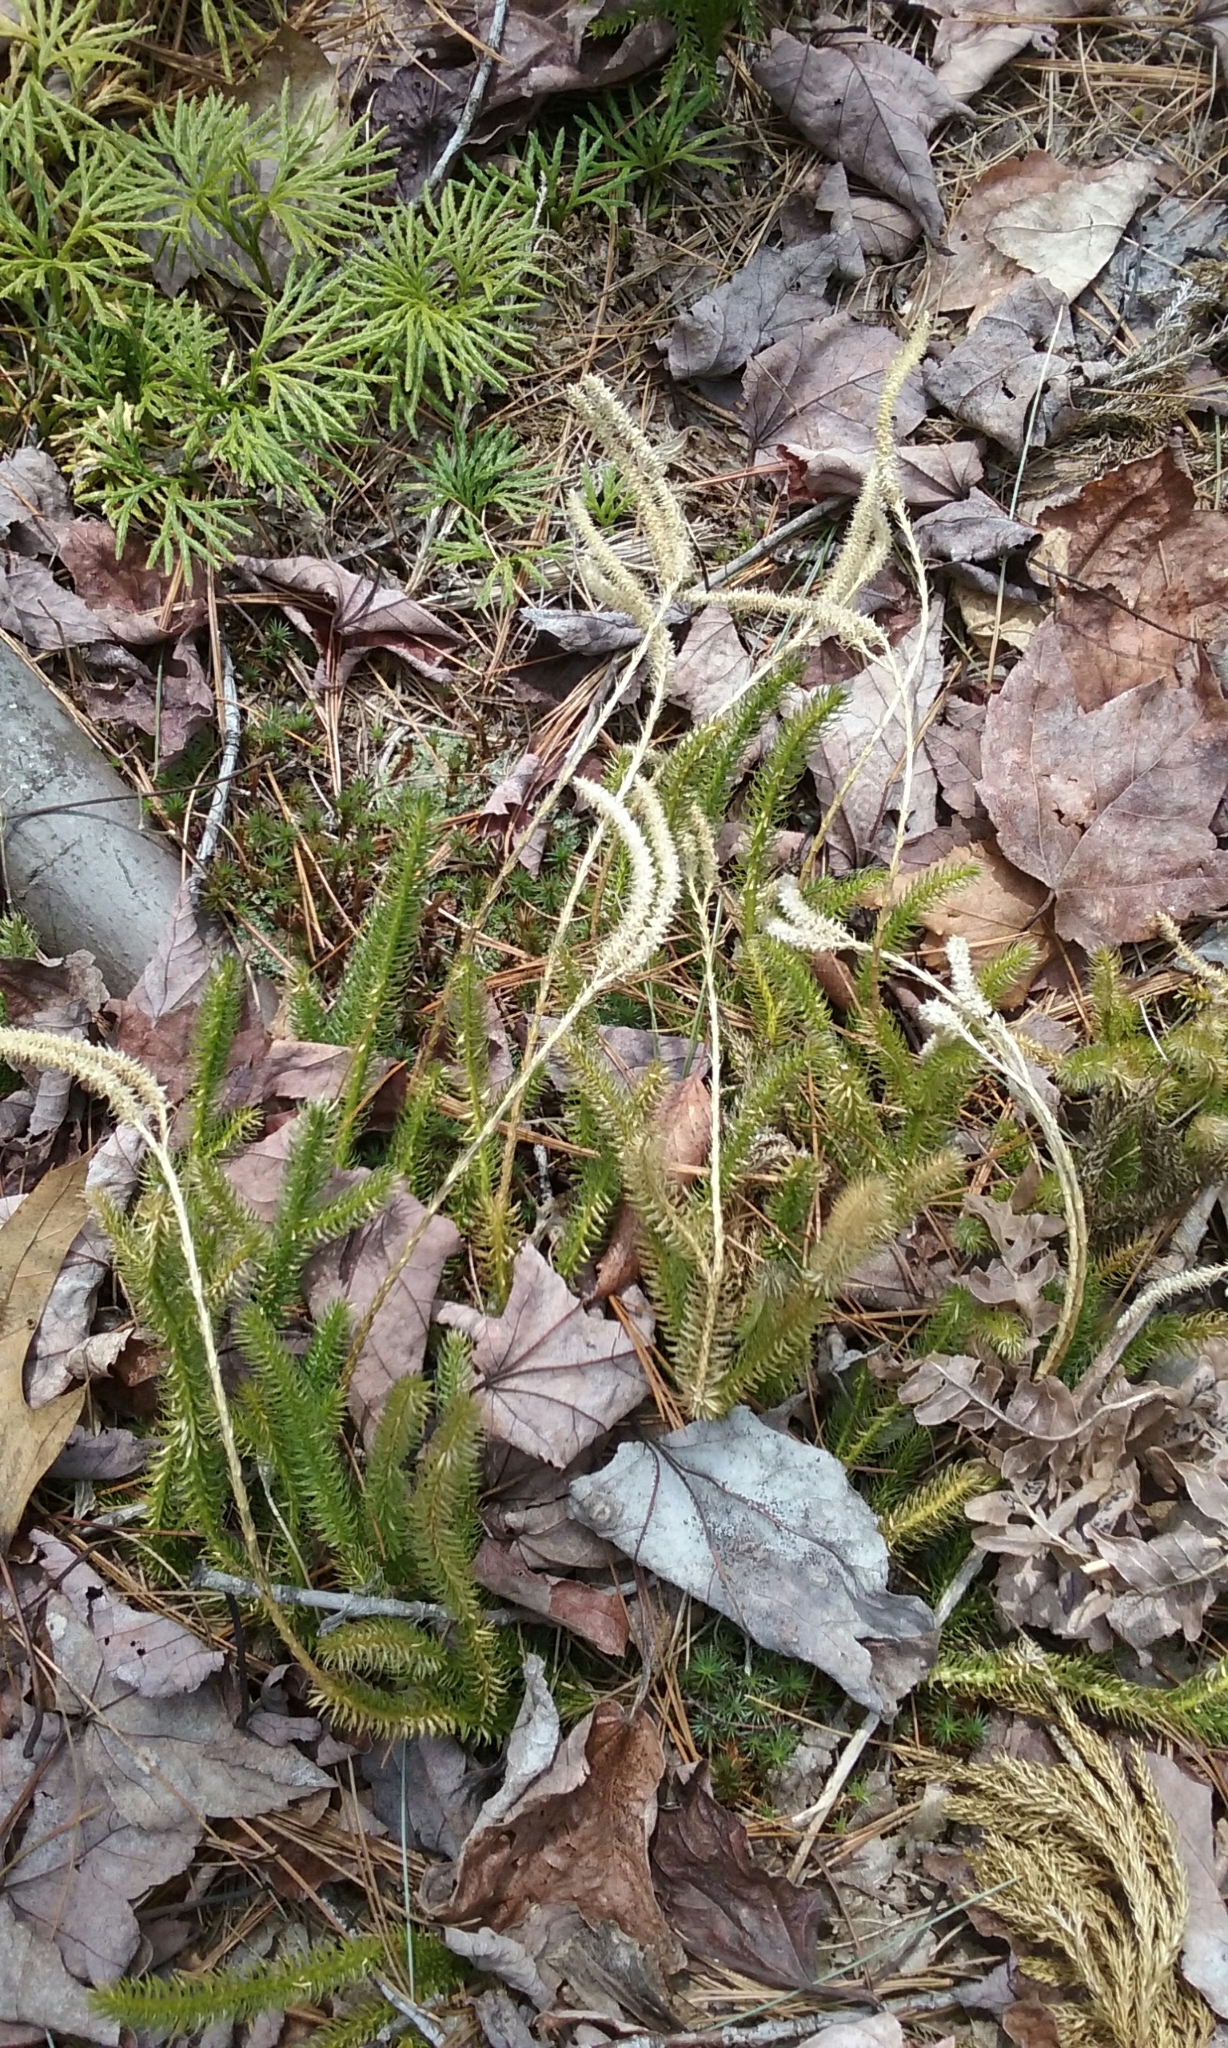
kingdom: Plantae
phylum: Tracheophyta
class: Lycopodiopsida
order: Lycopodiales
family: Lycopodiaceae
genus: Lycopodium
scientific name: Lycopodium clavatum
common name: Stag's-horn clubmoss
